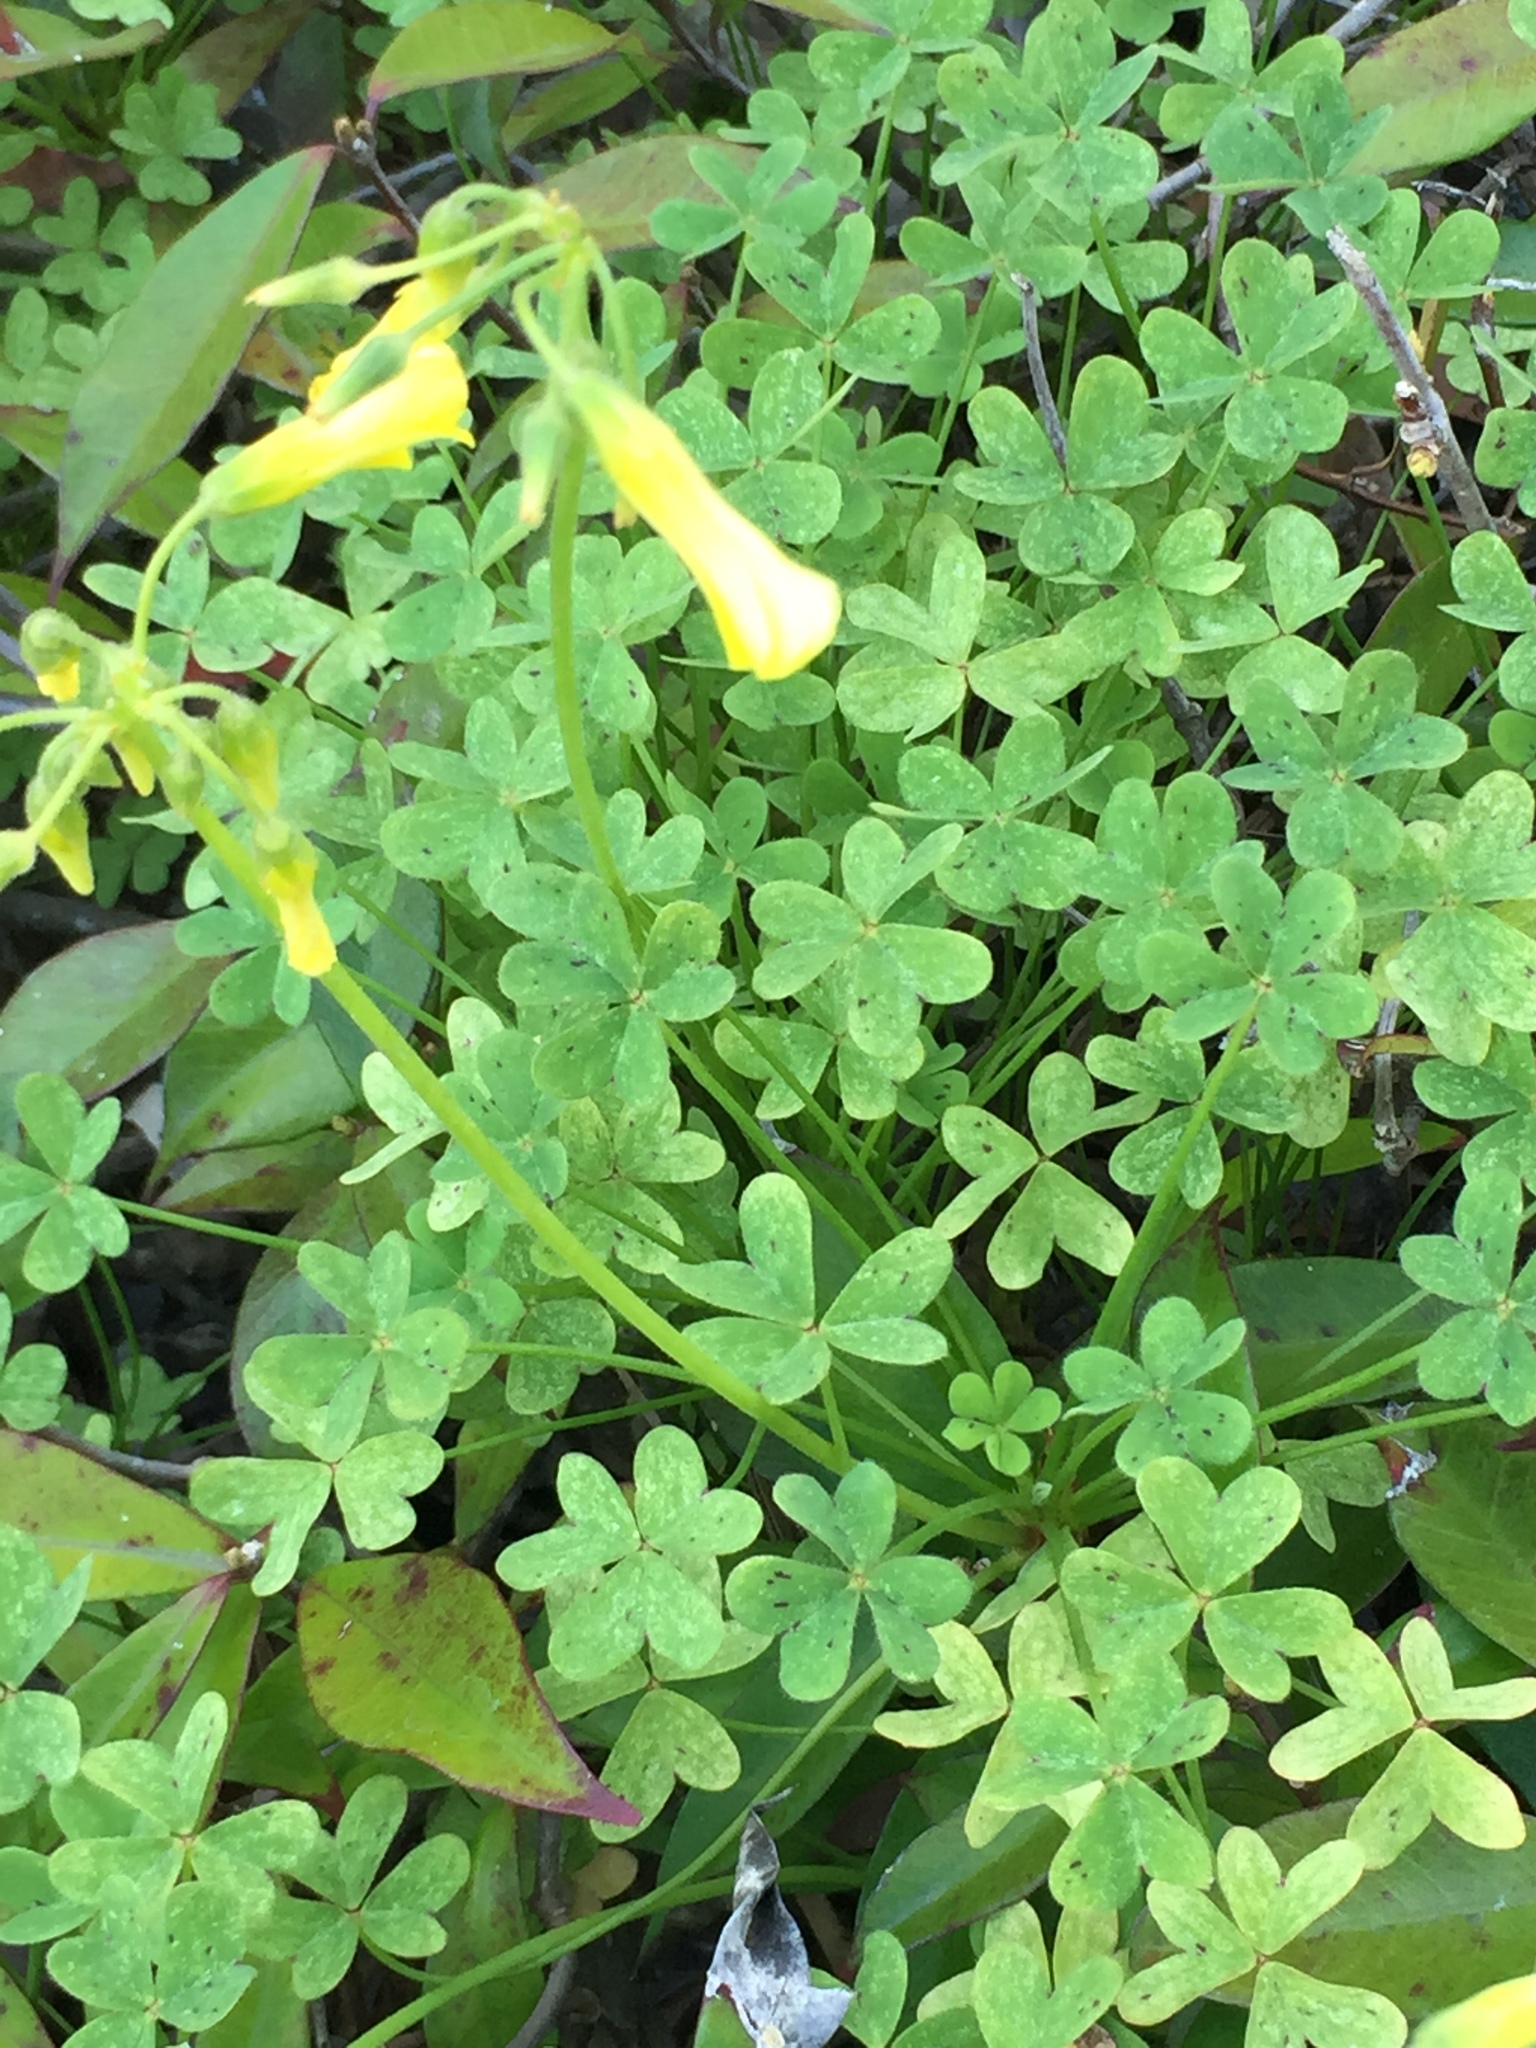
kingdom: Plantae
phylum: Tracheophyta
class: Magnoliopsida
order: Oxalidales
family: Oxalidaceae
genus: Oxalis
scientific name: Oxalis pes-caprae
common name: Bermuda-buttercup
